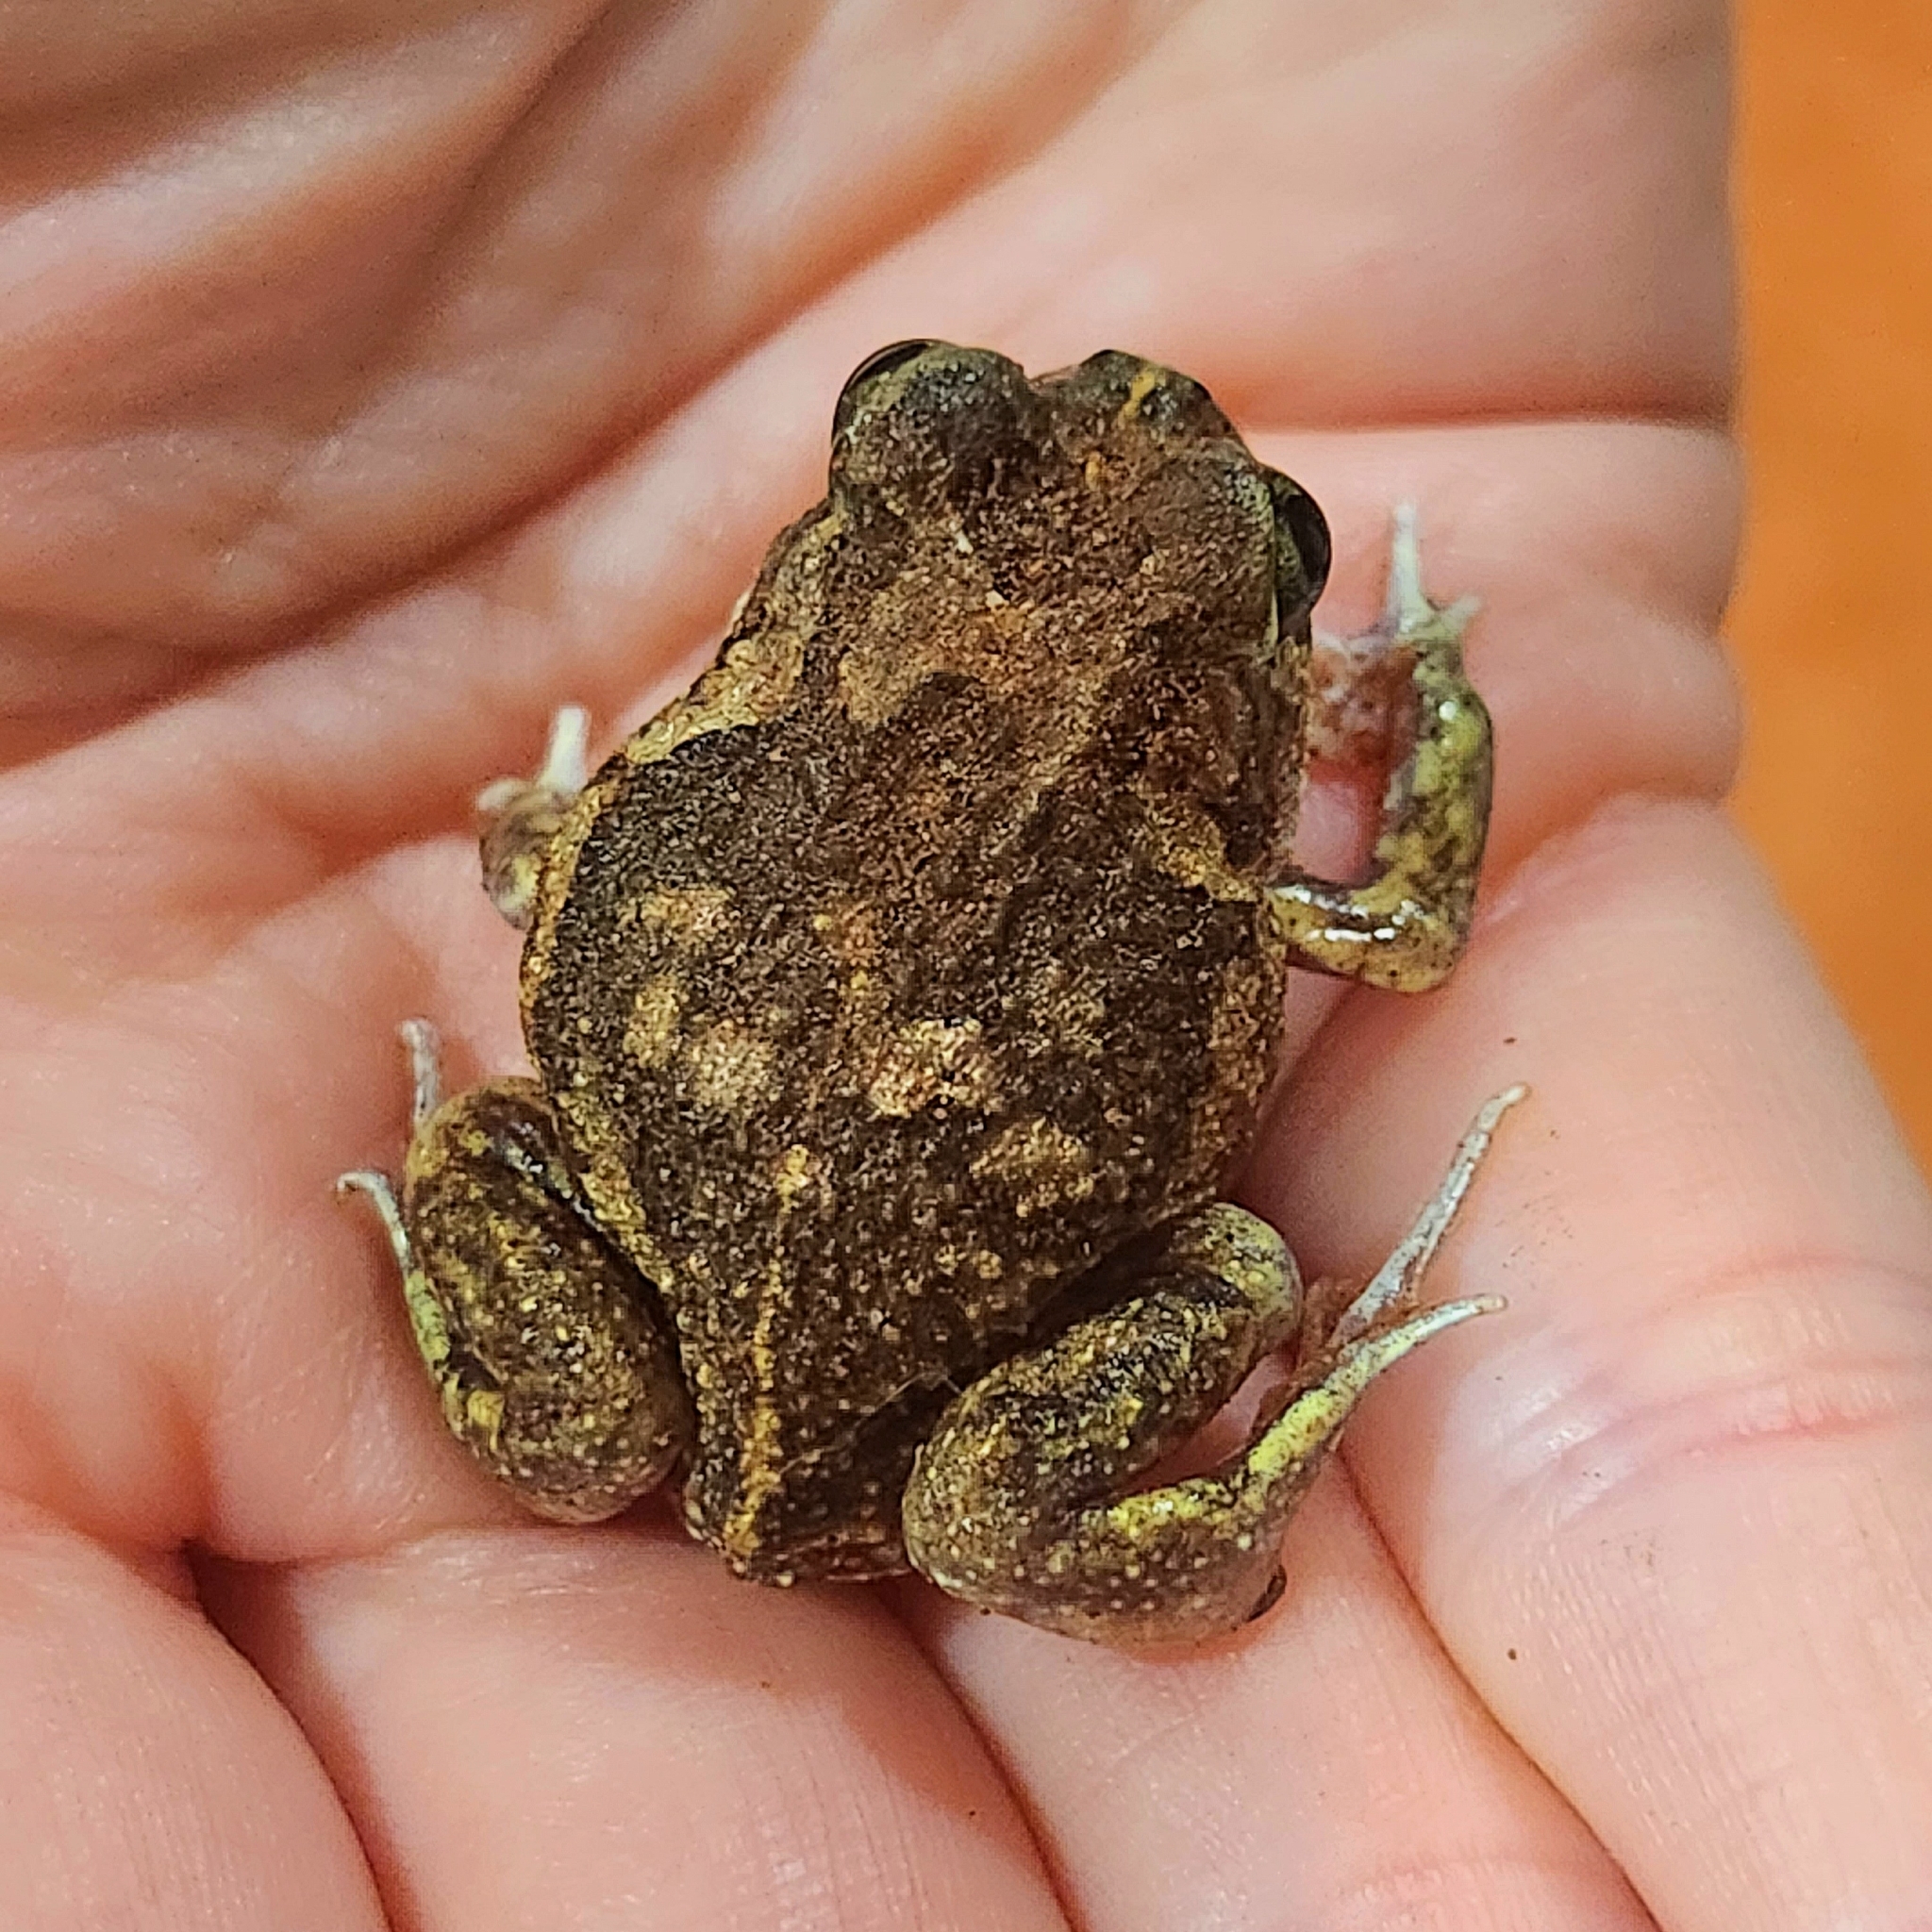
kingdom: Animalia
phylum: Chordata
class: Amphibia
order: Anura
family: Limnodynastidae
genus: Neobatrachus
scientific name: Neobatrachus sudelli
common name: Common spadefoot toad
